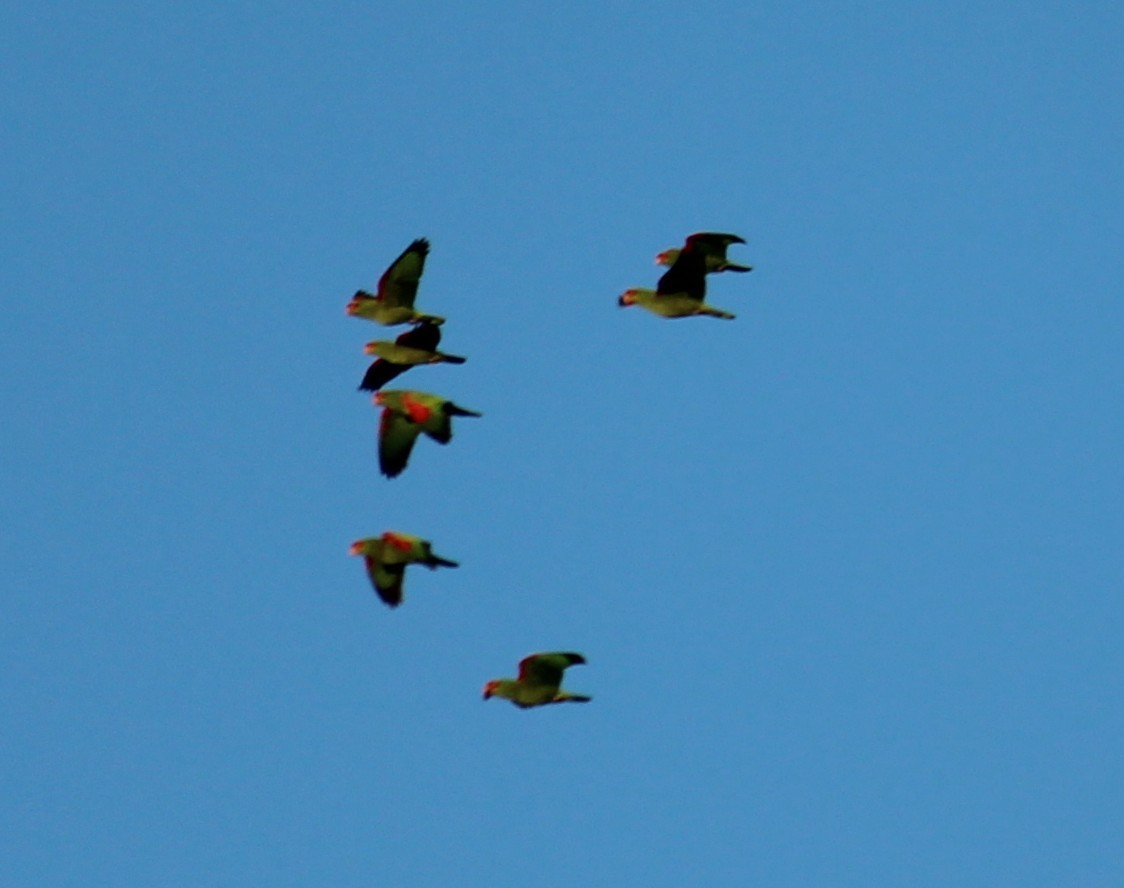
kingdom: Animalia
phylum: Chordata
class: Aves
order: Psittaciformes
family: Psittacidae
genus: Amazona
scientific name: Amazona pretrei
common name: Red-spectacled amazon
